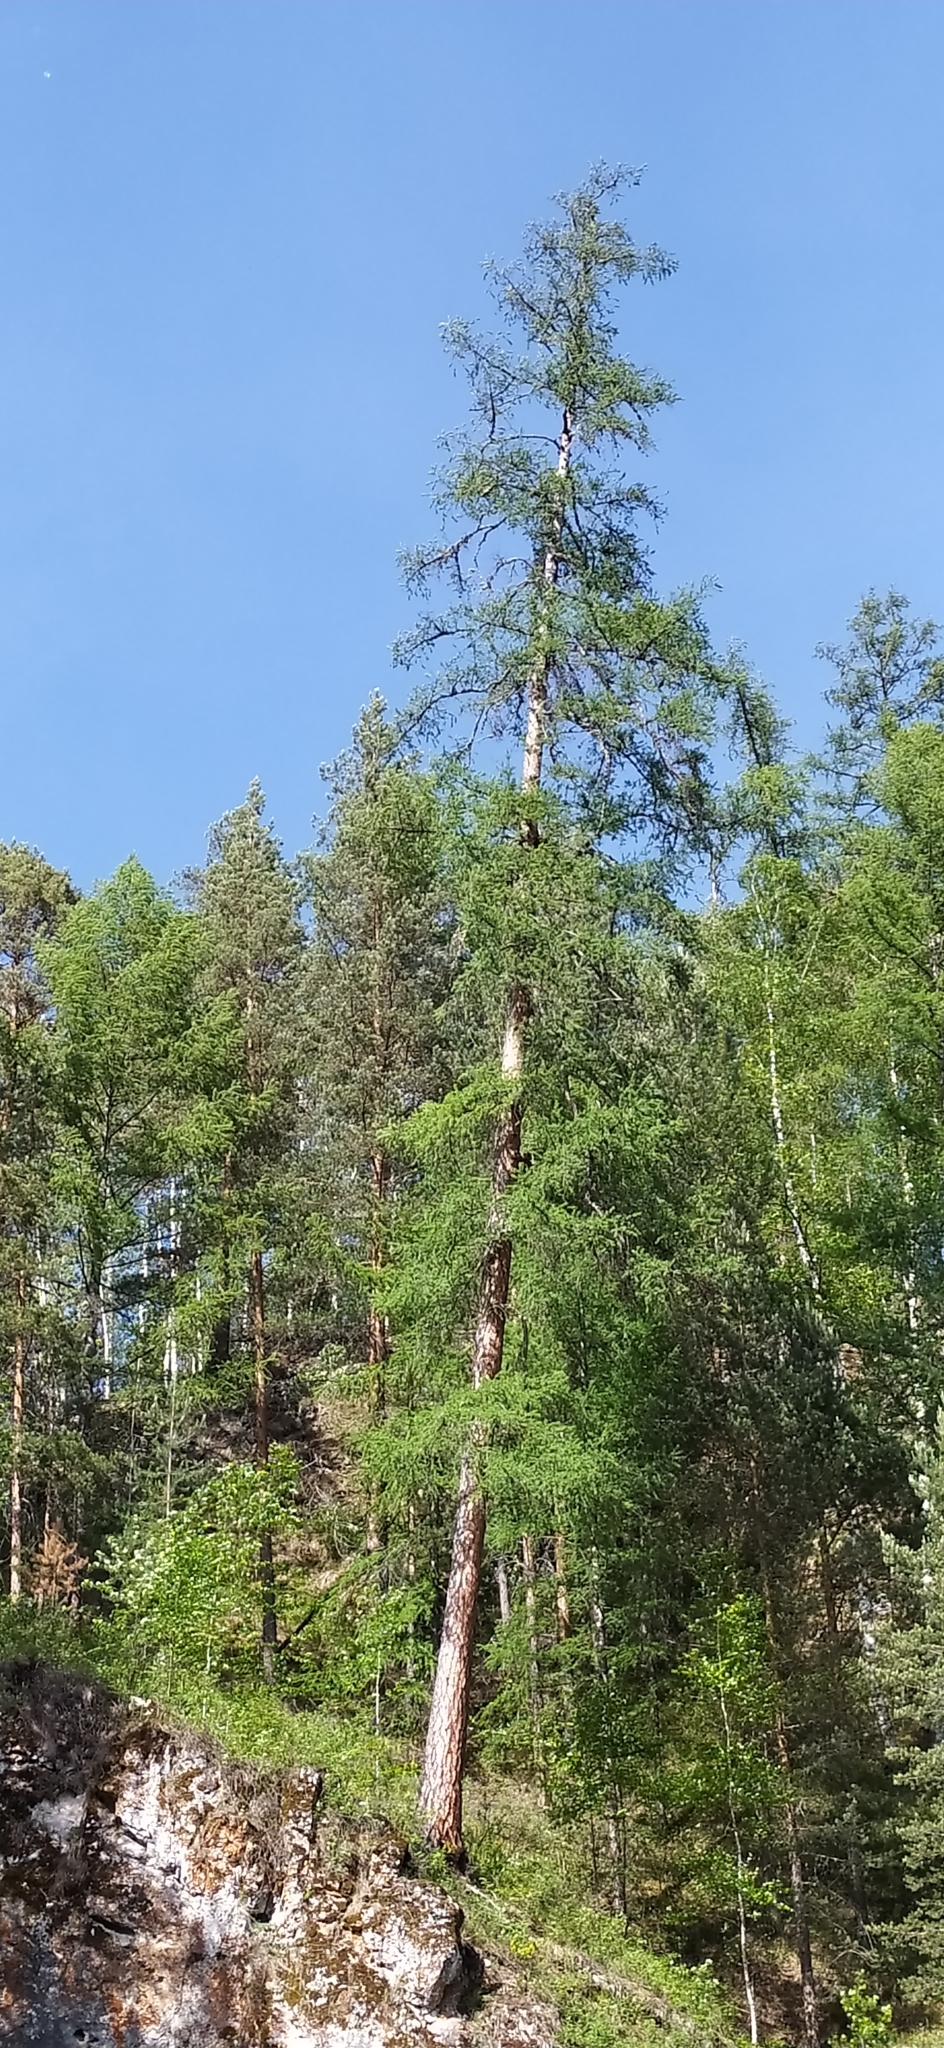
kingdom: Plantae
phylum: Tracheophyta
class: Pinopsida
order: Pinales
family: Pinaceae
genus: Larix
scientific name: Larix sibirica
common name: Siberian larch
